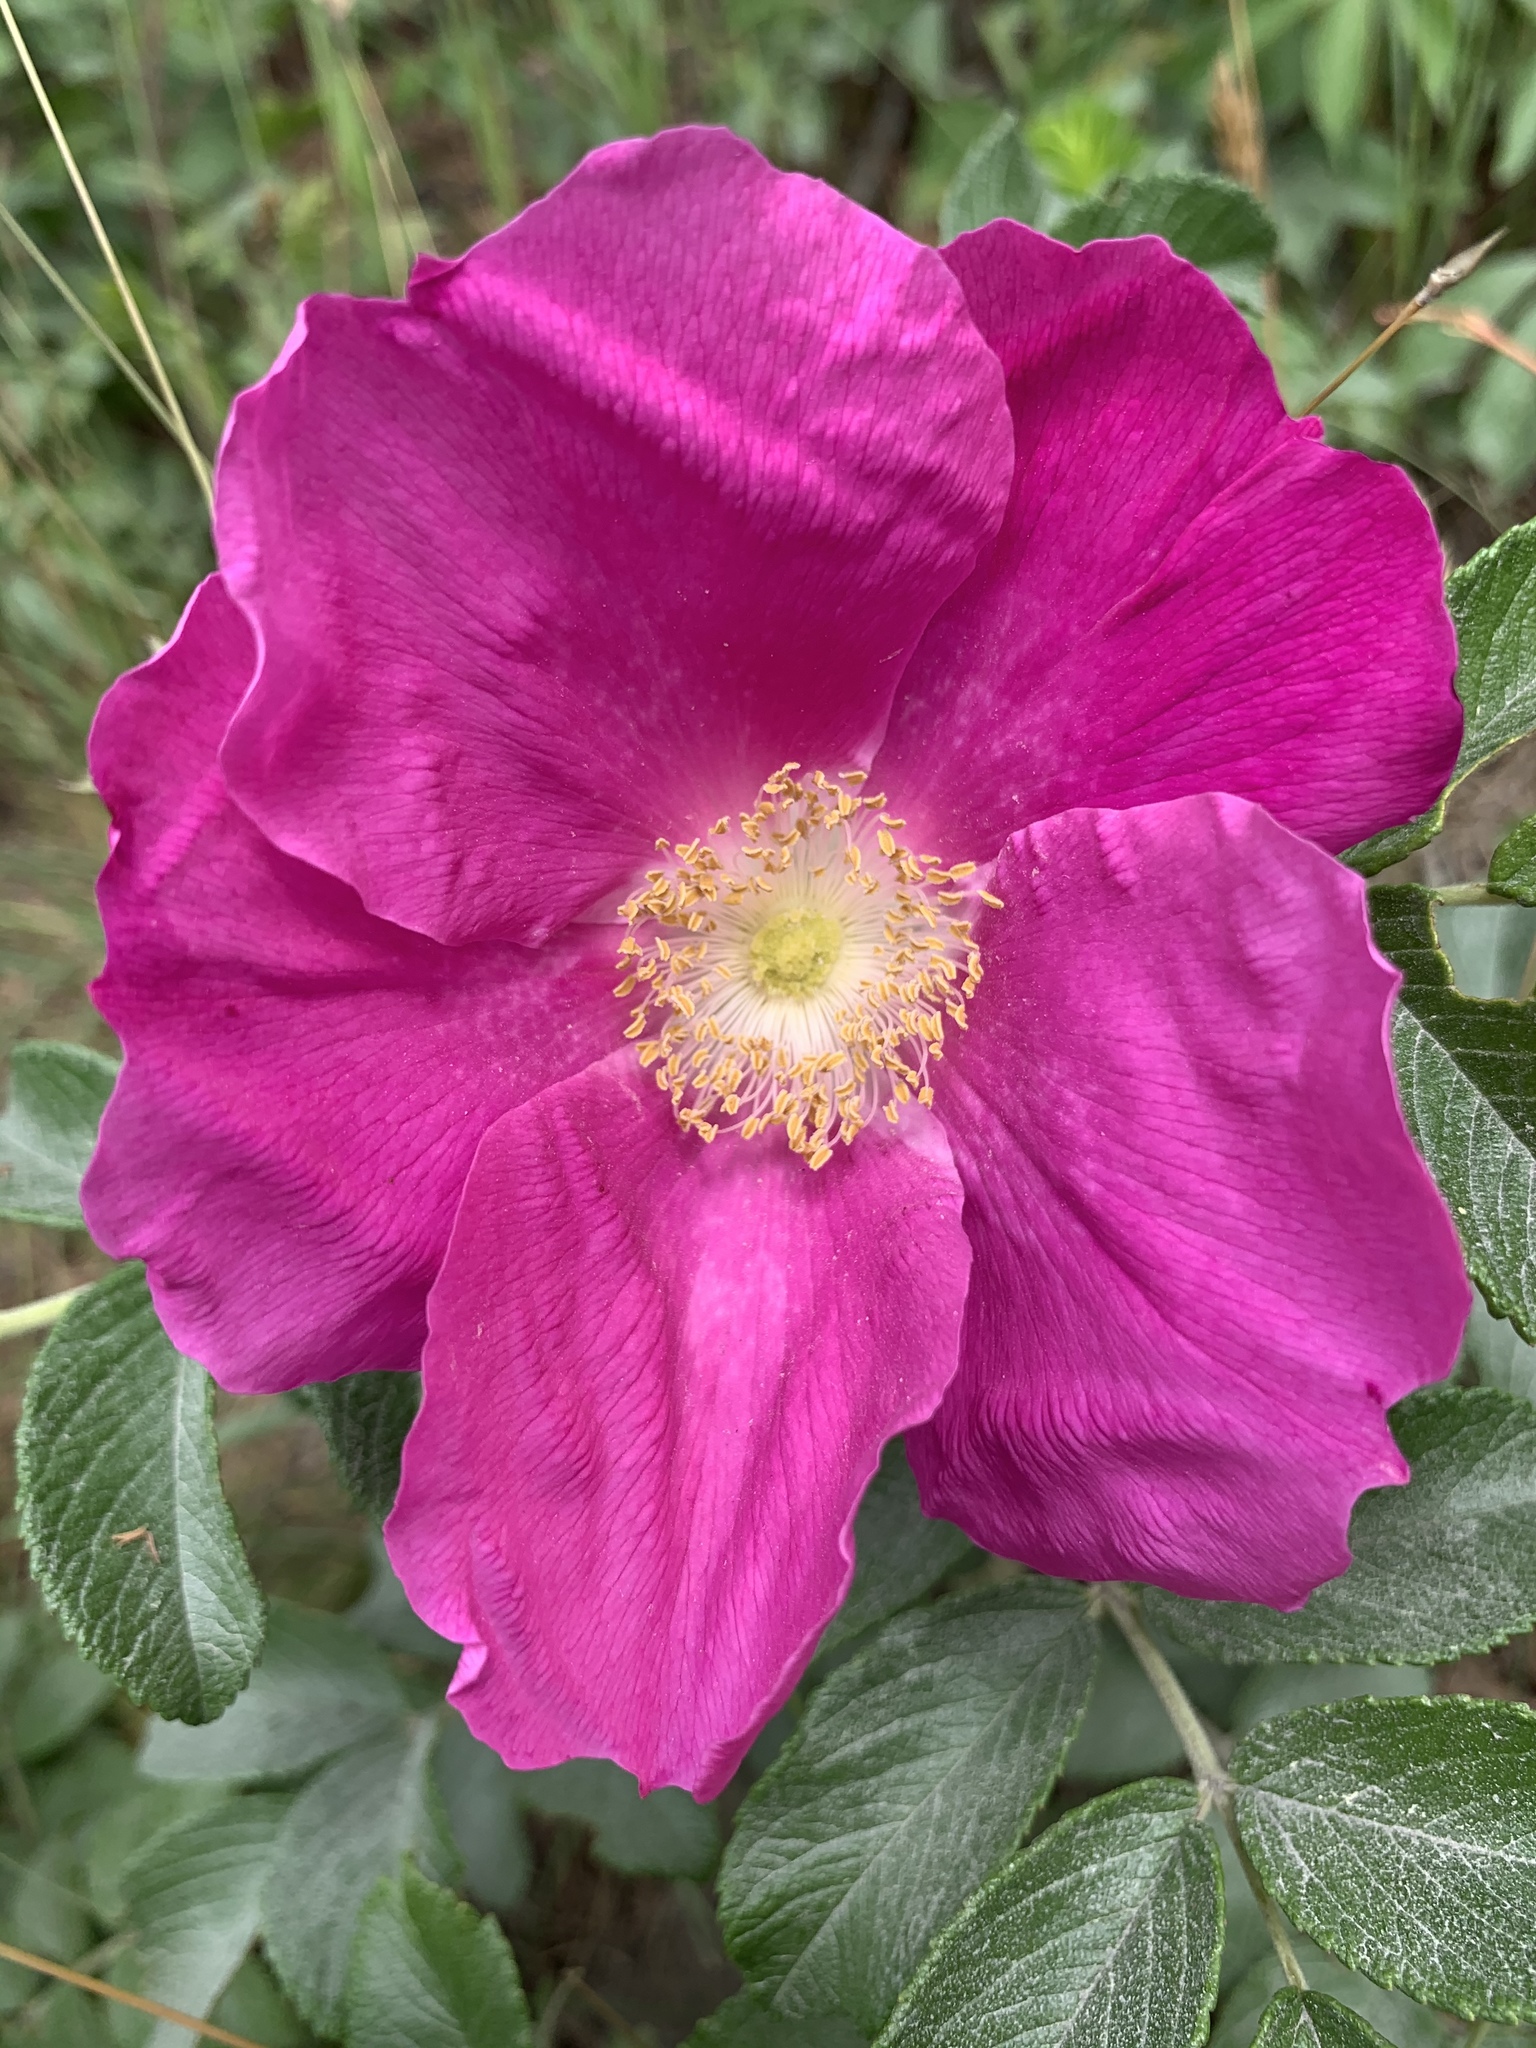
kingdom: Plantae
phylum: Tracheophyta
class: Magnoliopsida
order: Rosales
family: Rosaceae
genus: Rosa
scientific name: Rosa rugosa
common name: Japanese rose
